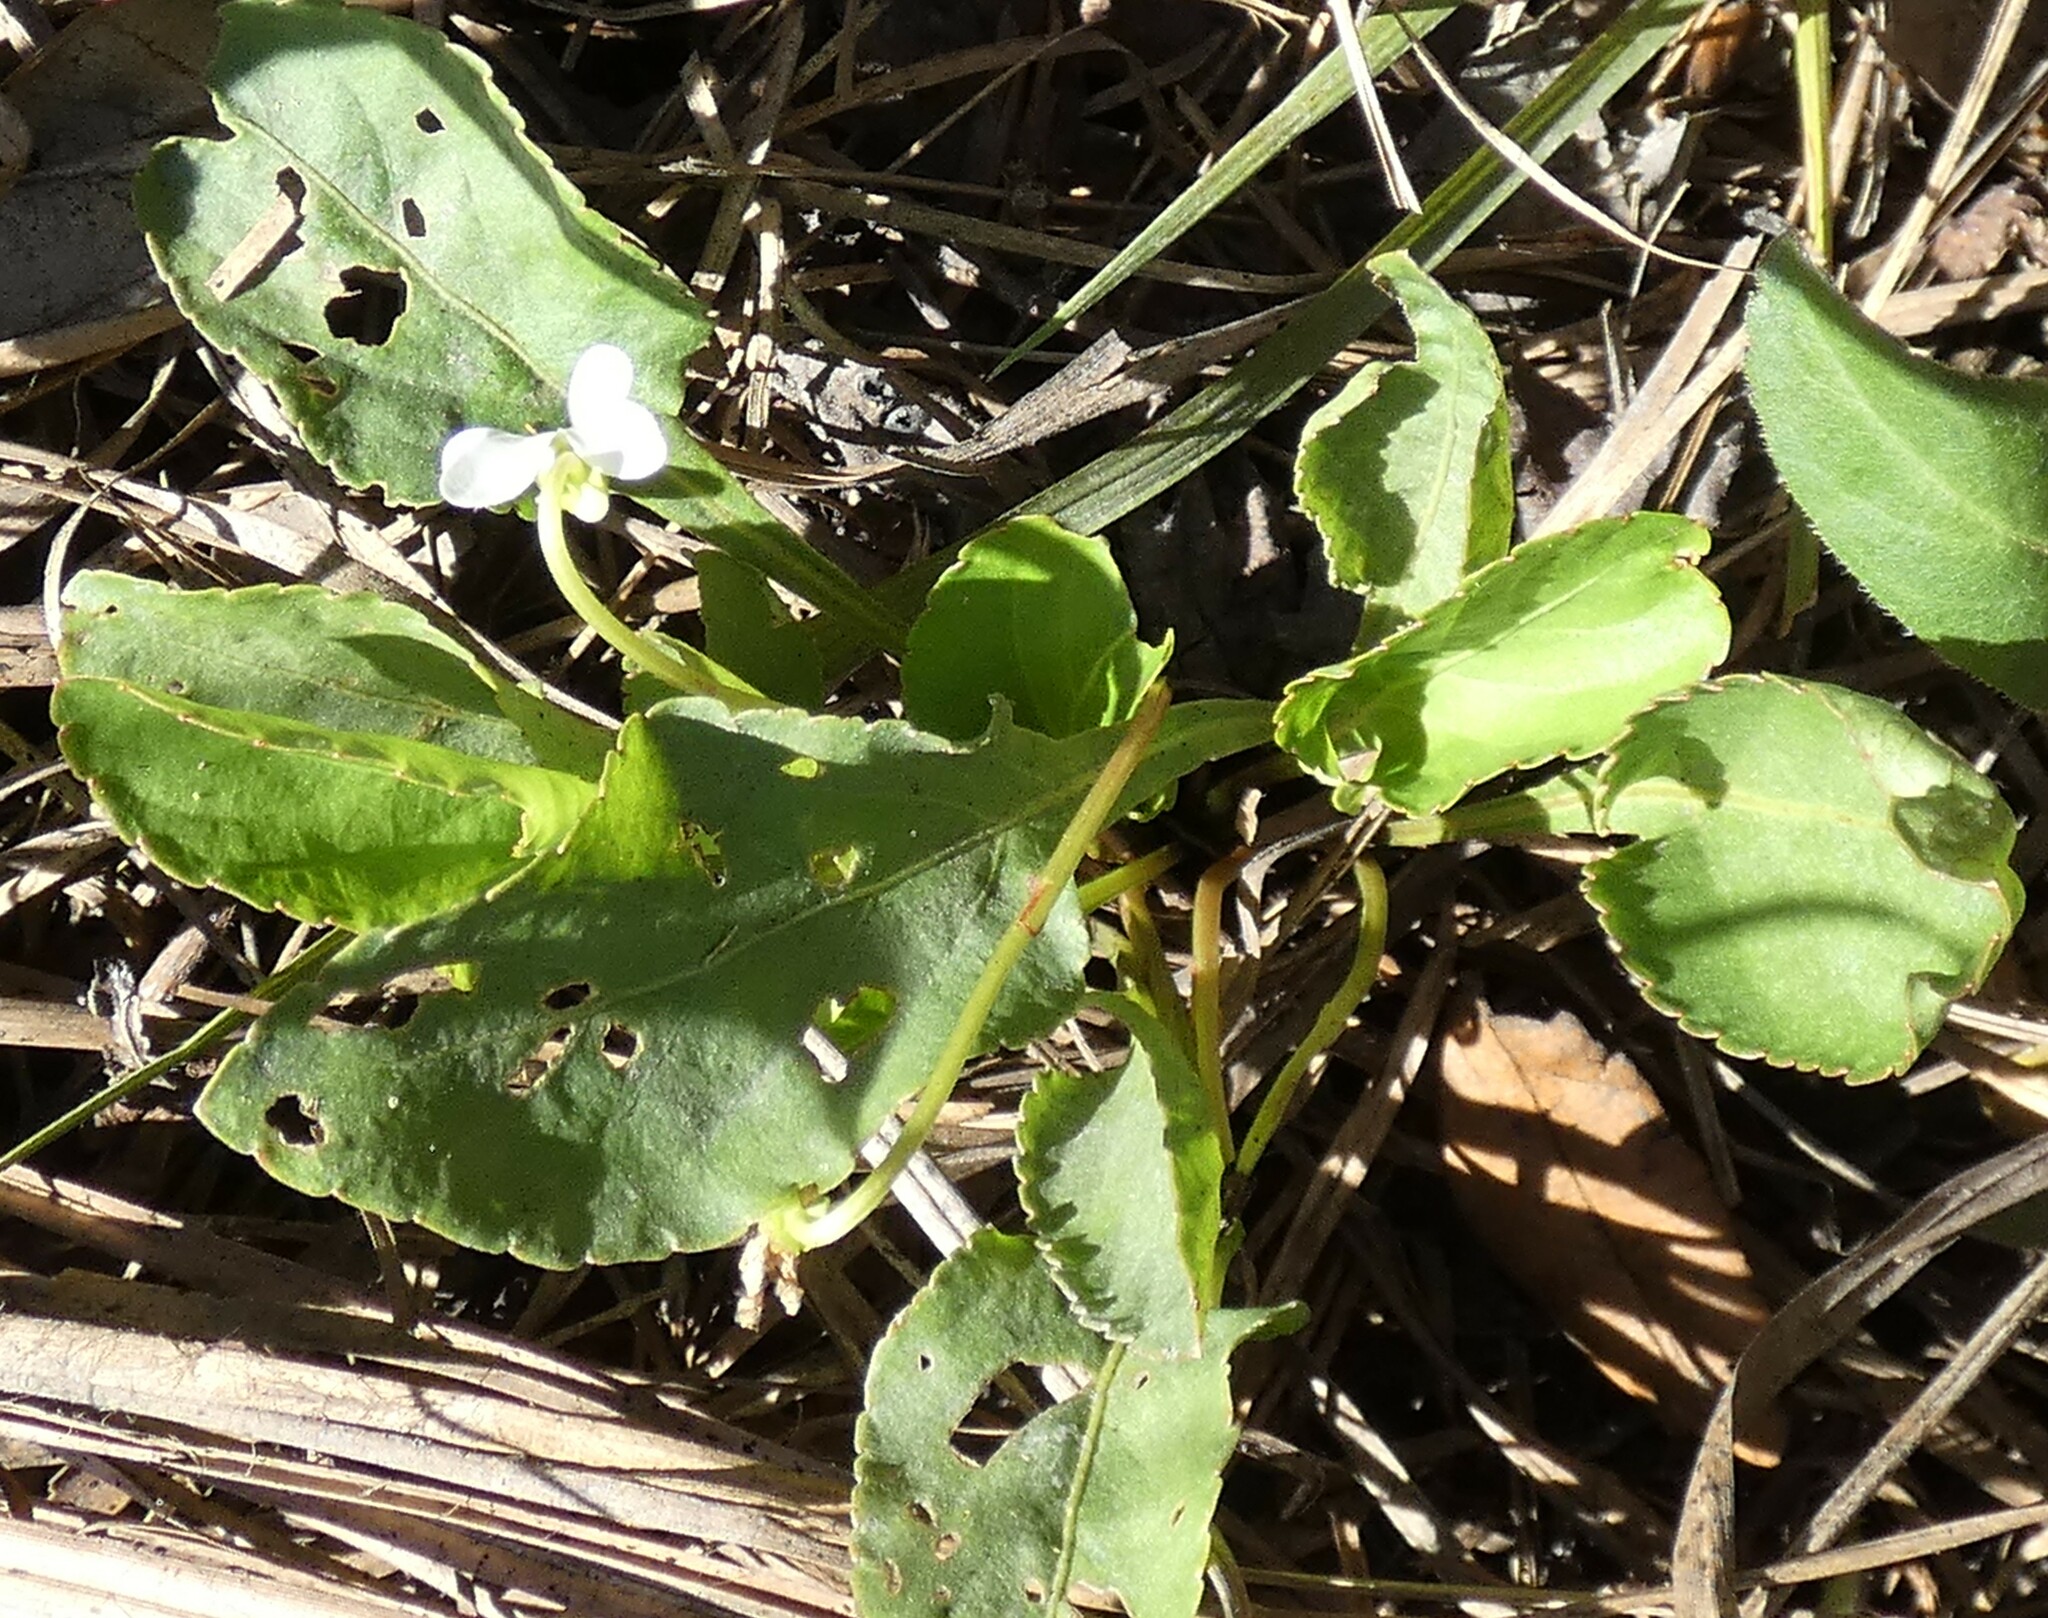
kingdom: Plantae
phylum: Tracheophyta
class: Magnoliopsida
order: Malpighiales
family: Violaceae
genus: Viola
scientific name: Viola primulifolia
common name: Primrose-leaf violet
